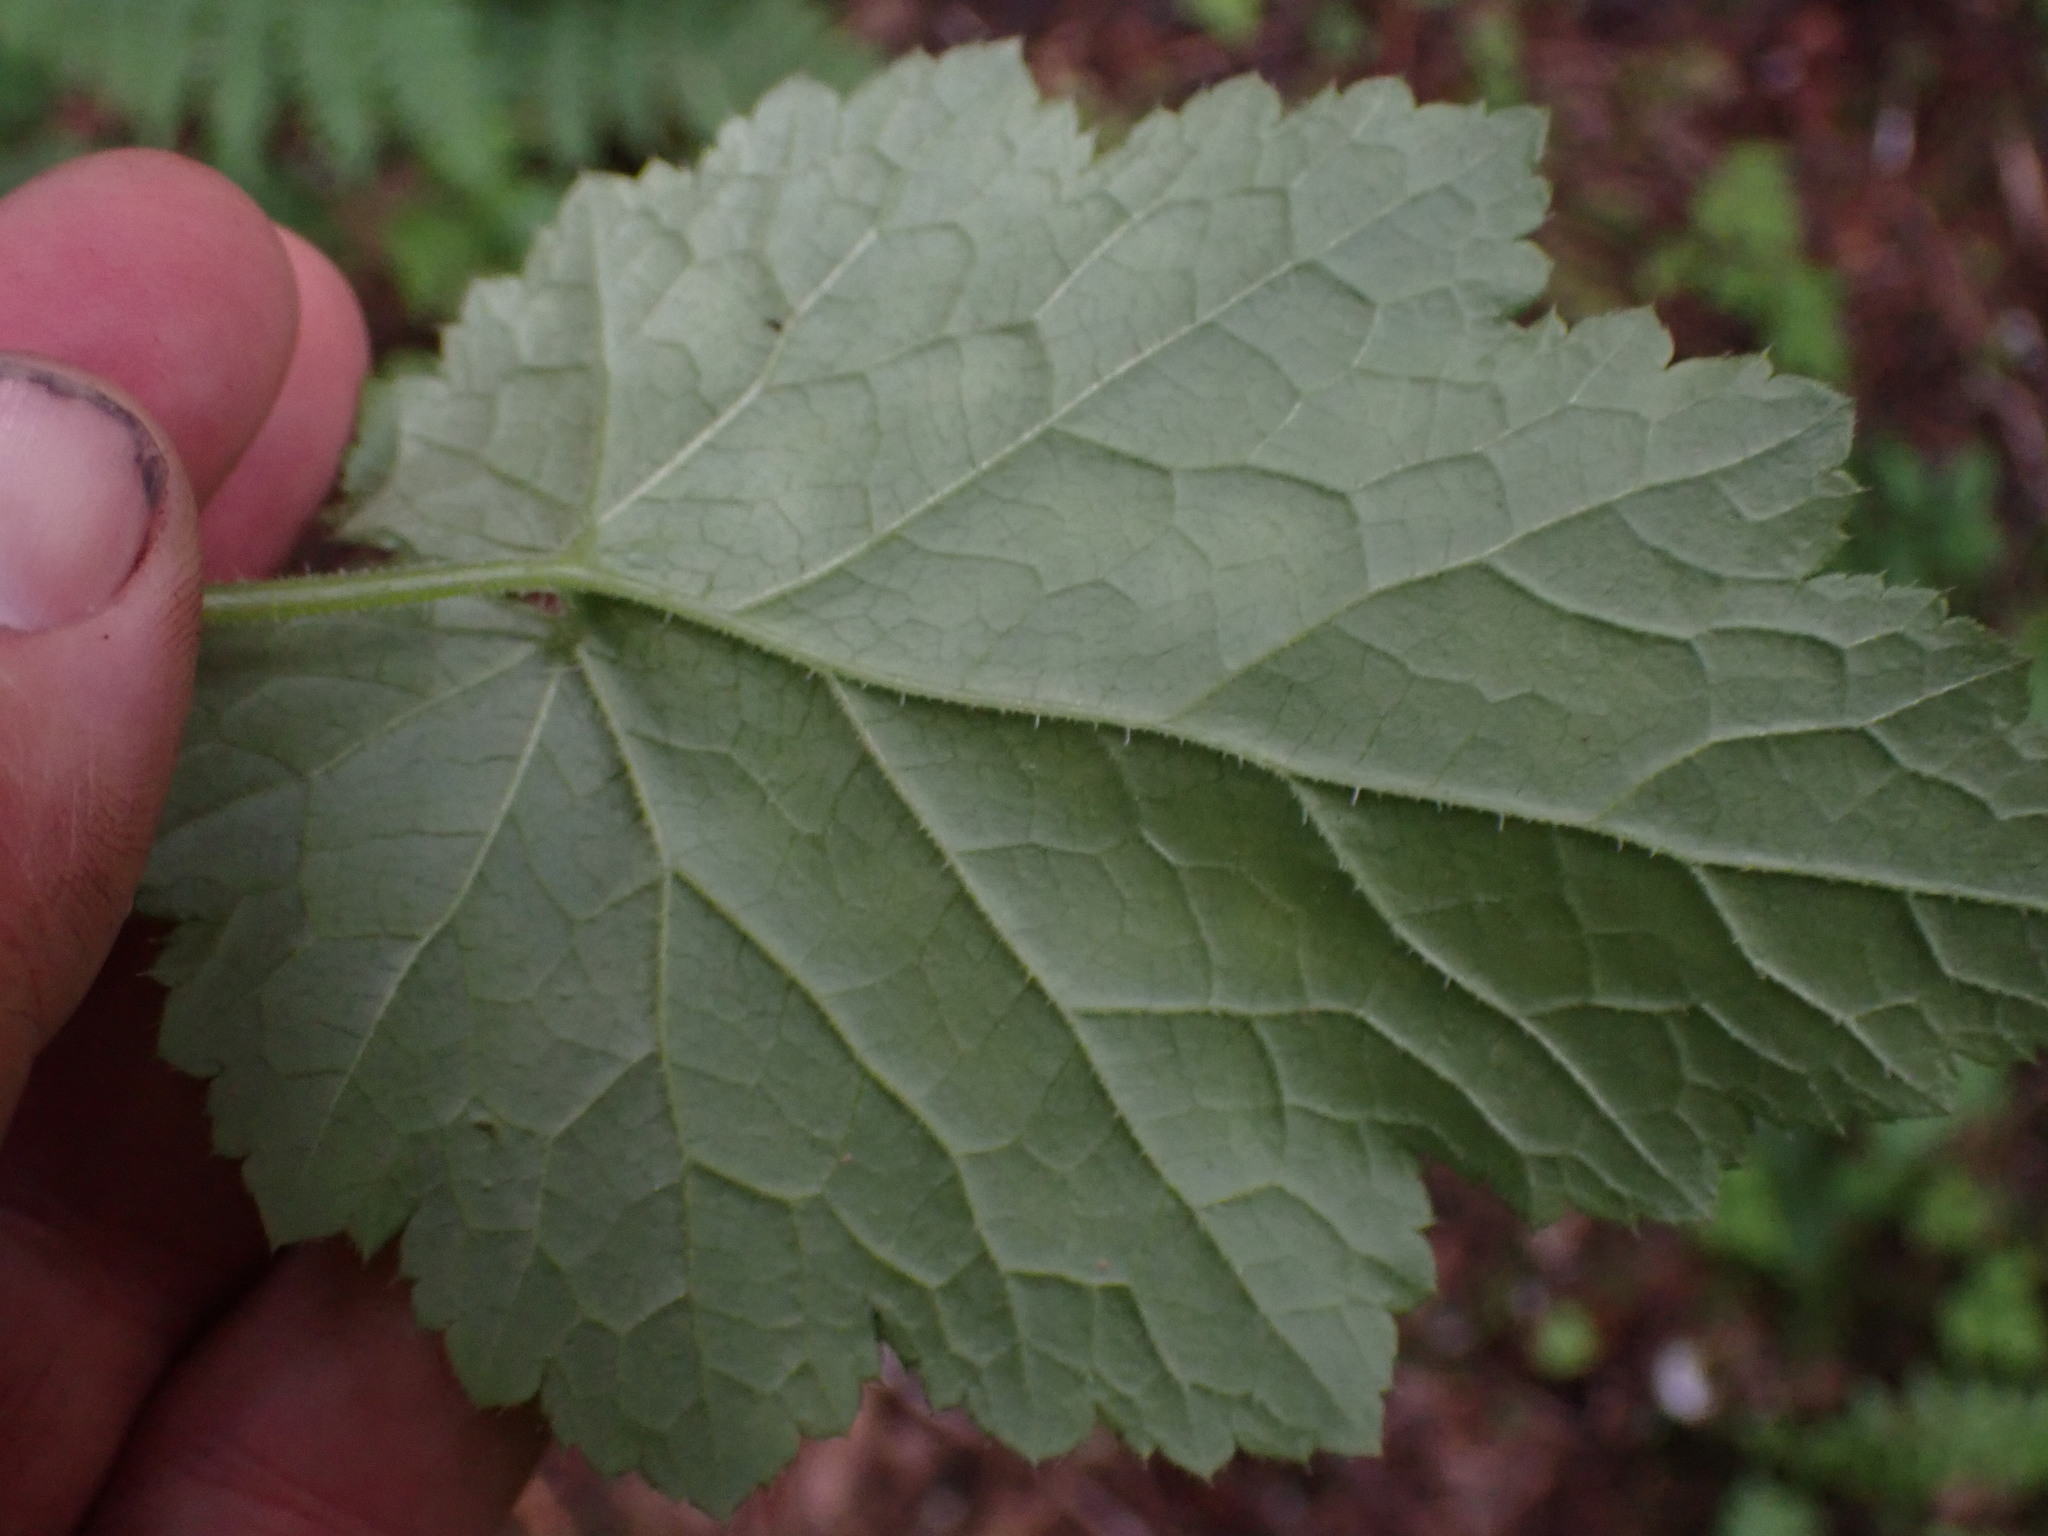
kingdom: Plantae
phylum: Tracheophyta
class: Magnoliopsida
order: Saxifragales
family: Saxifragaceae
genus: Tolmiea
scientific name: Tolmiea menziesii
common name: Pick-a-back-plant
